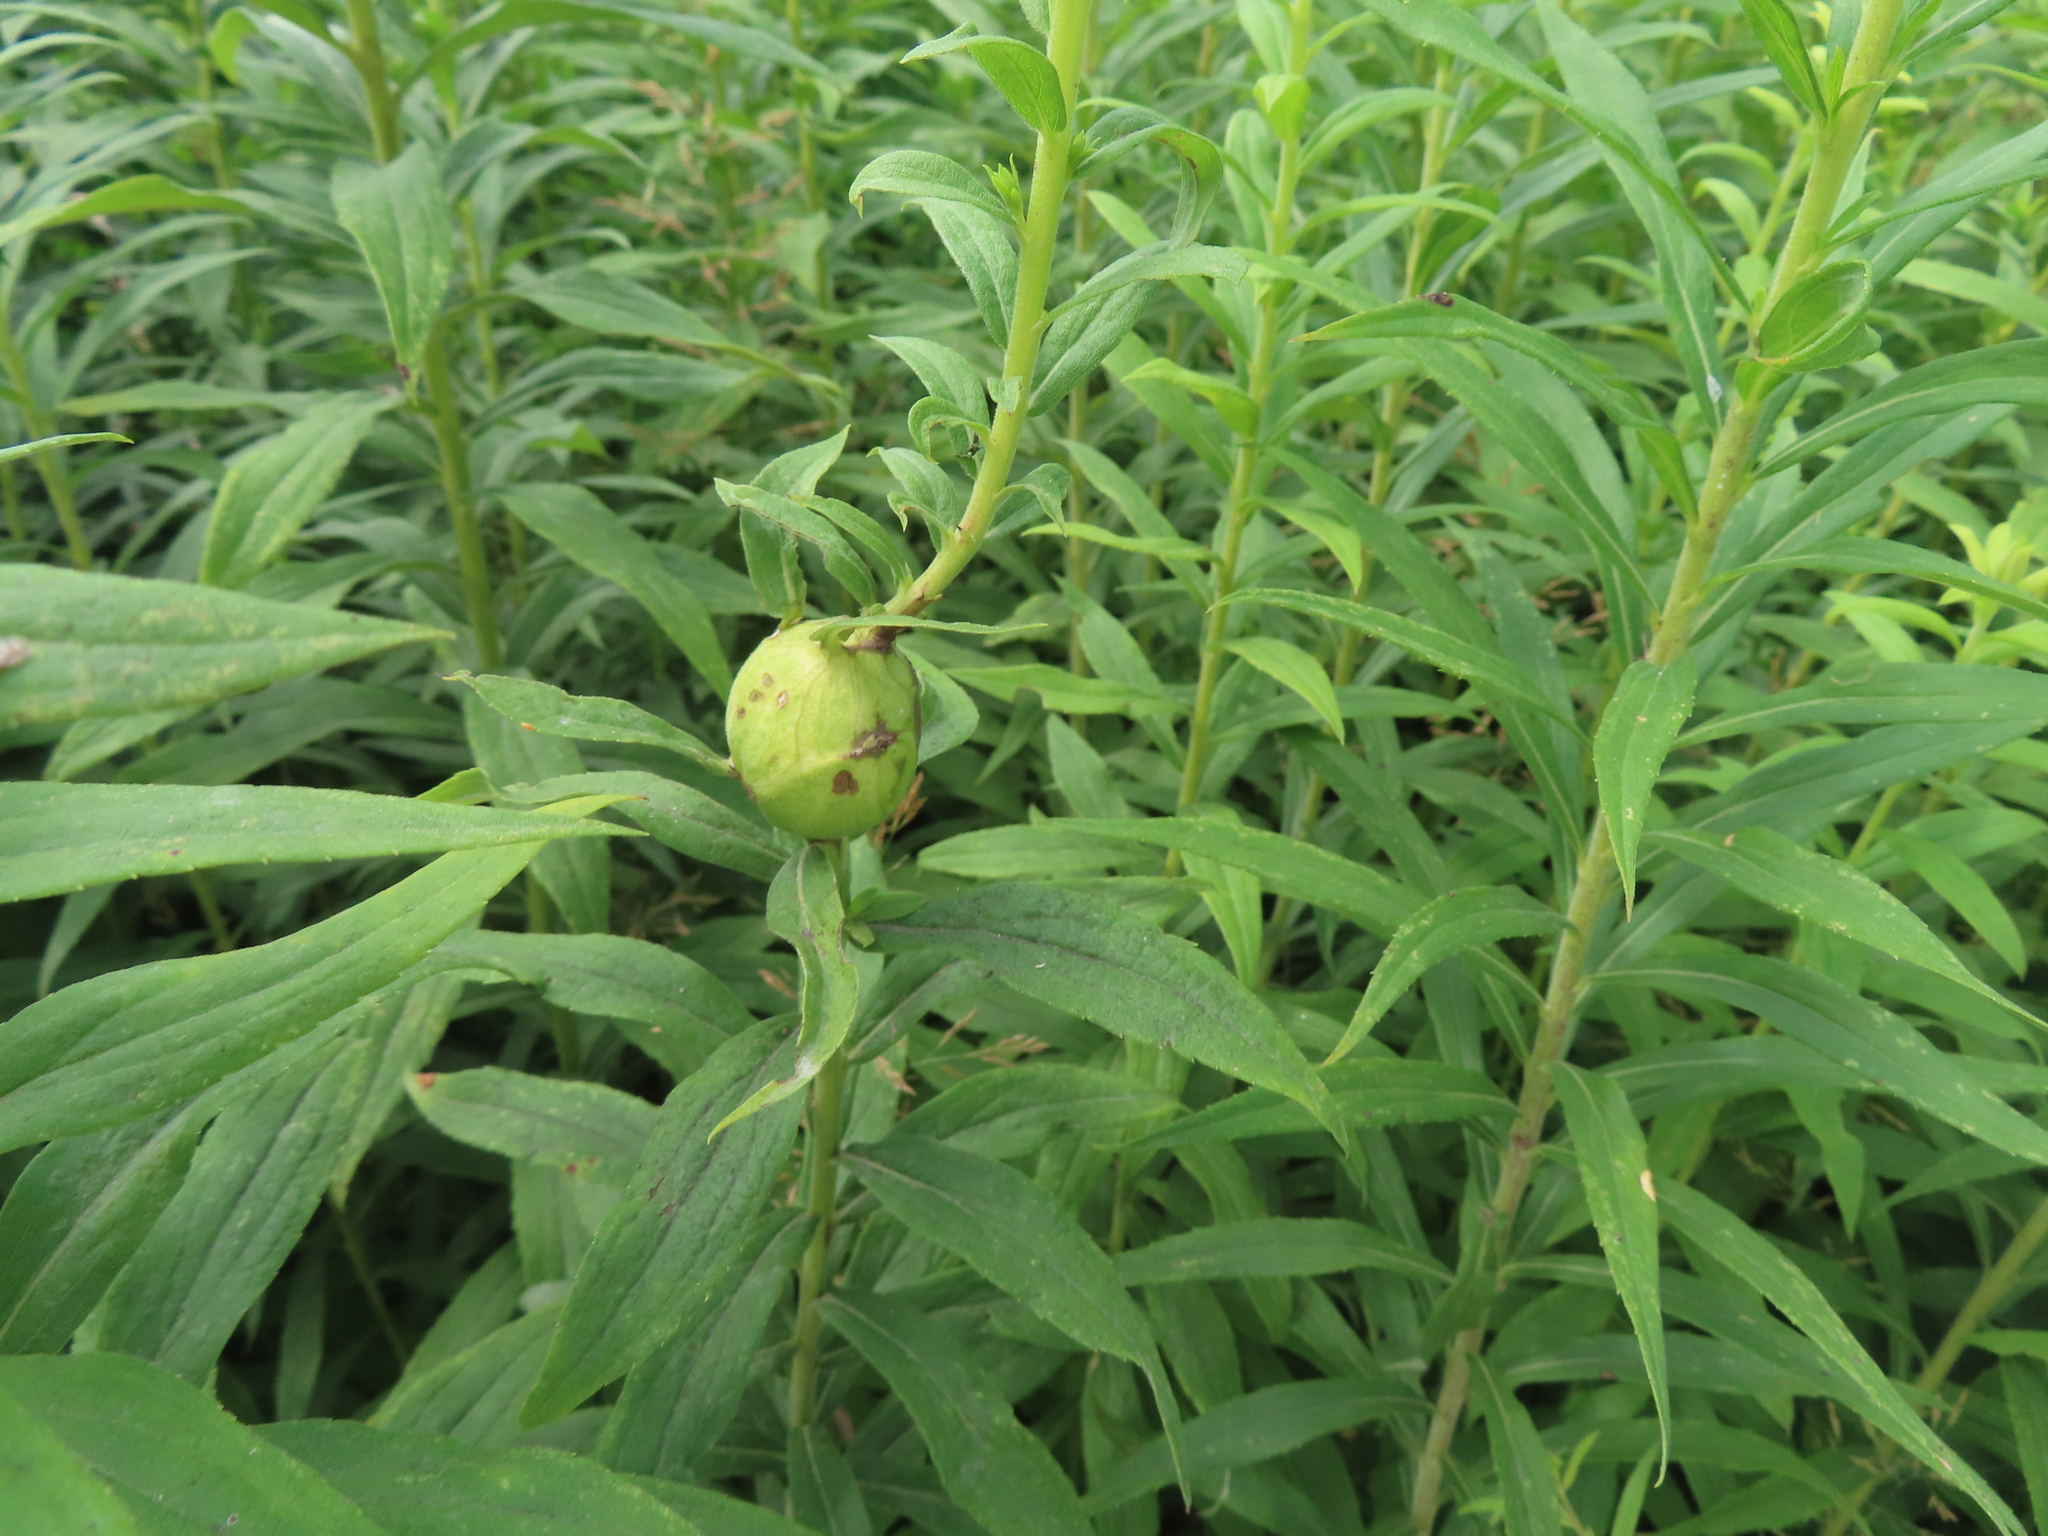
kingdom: Animalia
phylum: Arthropoda
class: Insecta
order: Diptera
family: Tephritidae
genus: Eurosta
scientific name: Eurosta solidaginis
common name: Goldenrod gall fly
